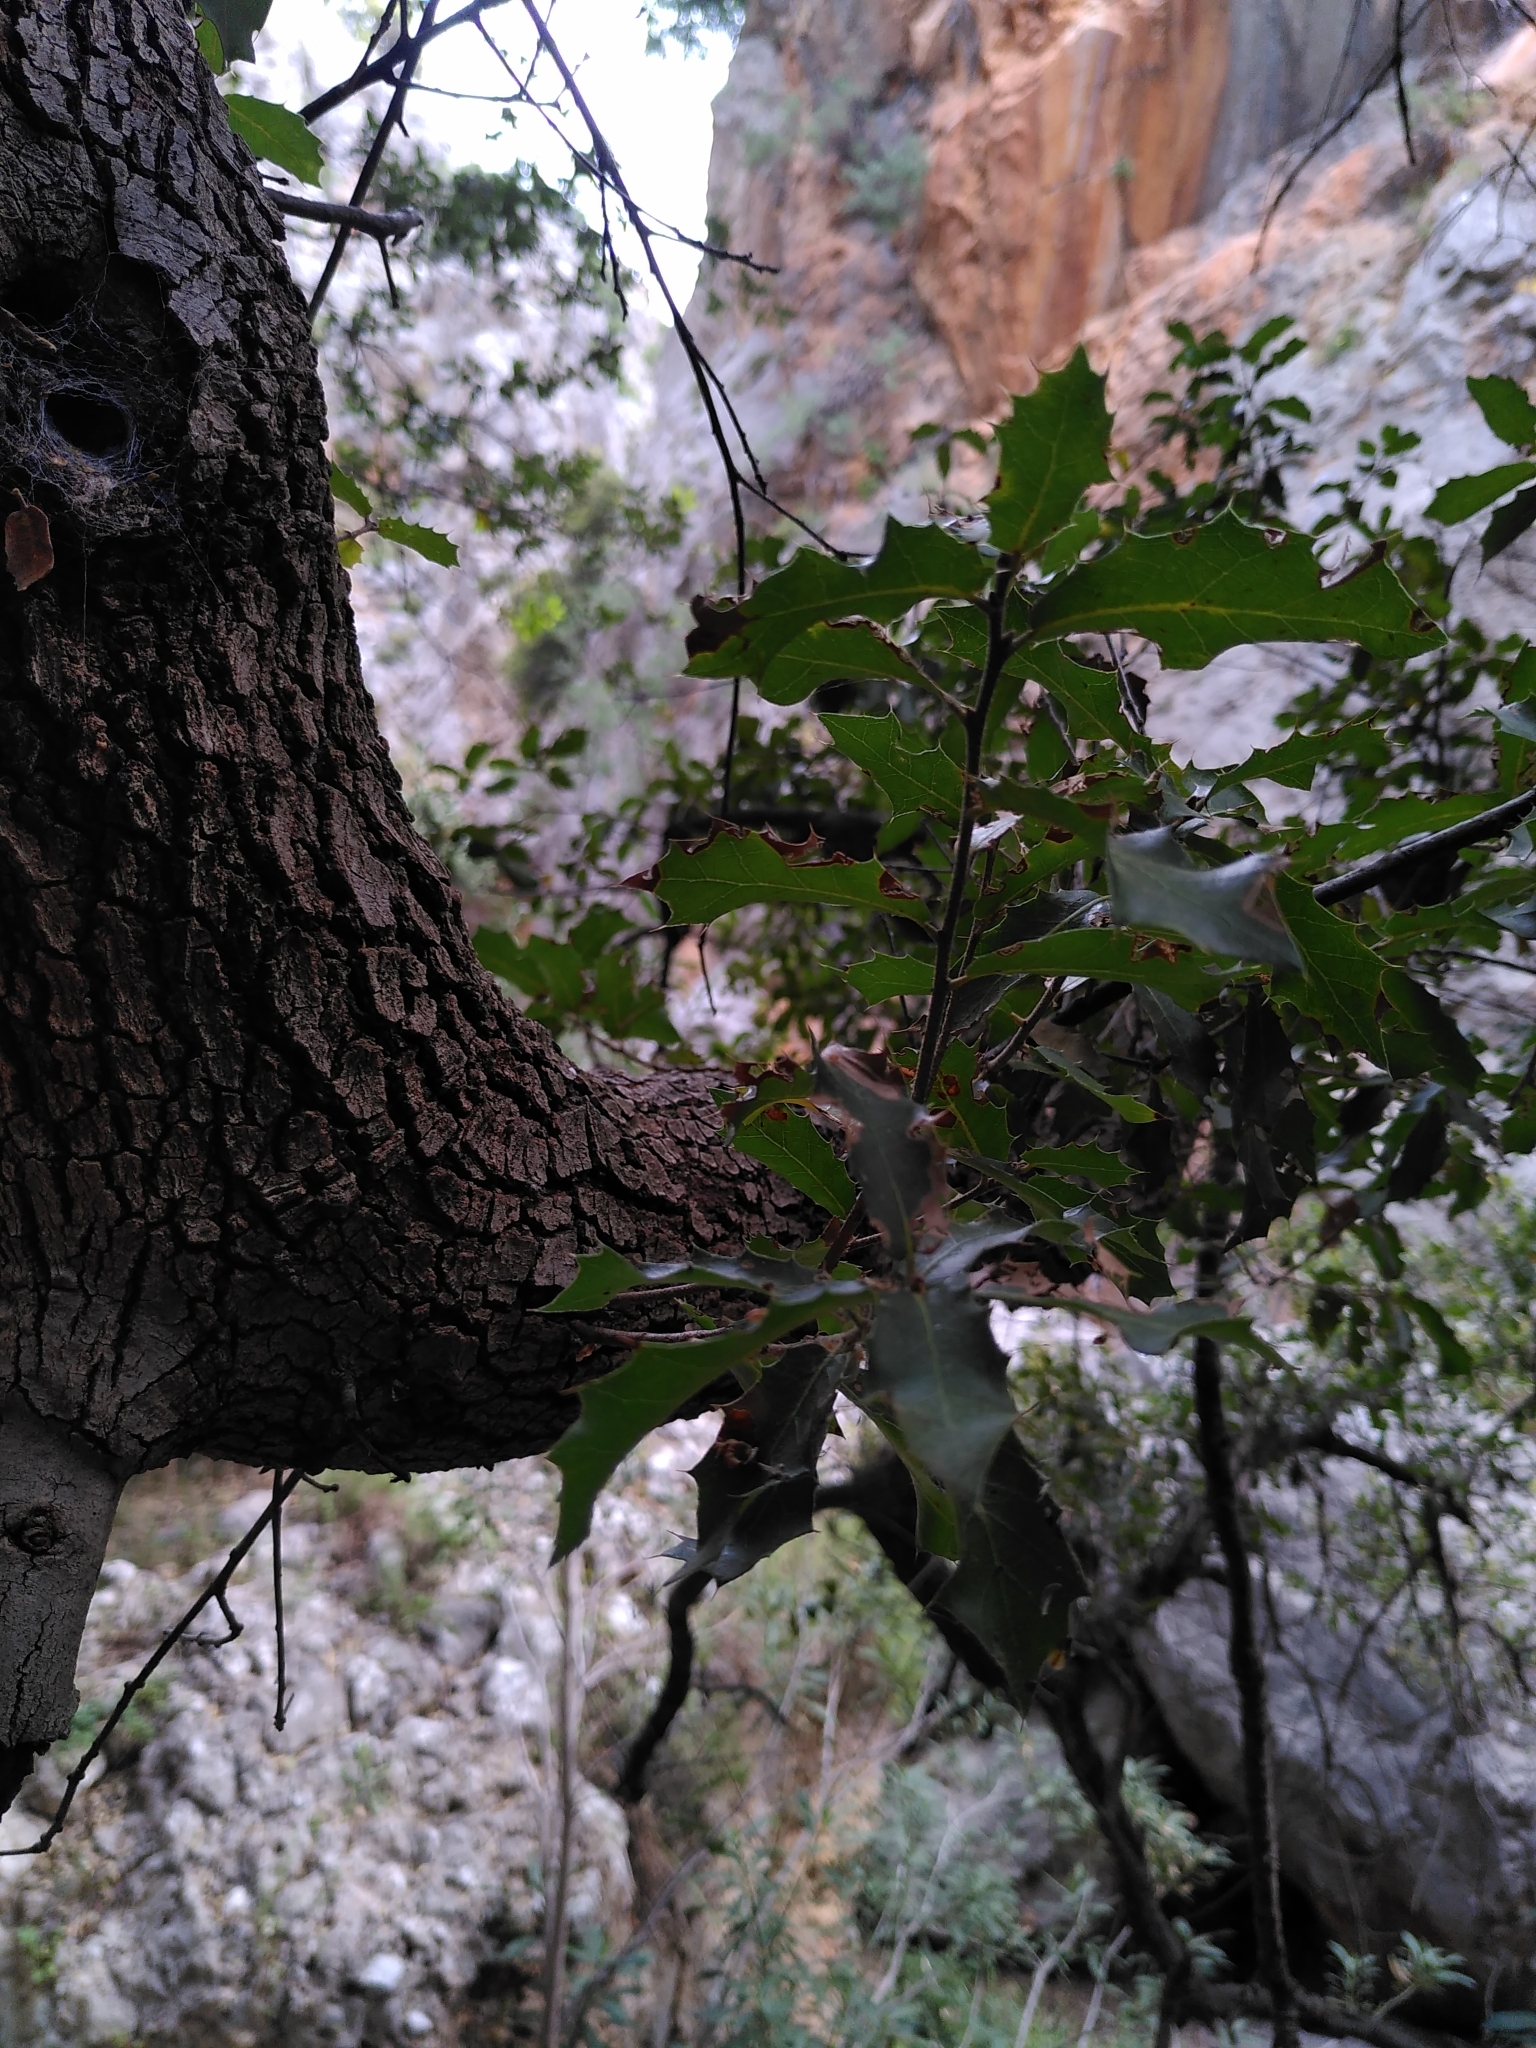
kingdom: Plantae
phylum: Tracheophyta
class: Magnoliopsida
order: Fagales
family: Fagaceae
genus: Quercus
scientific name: Quercus coccifera
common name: Kermes oak
